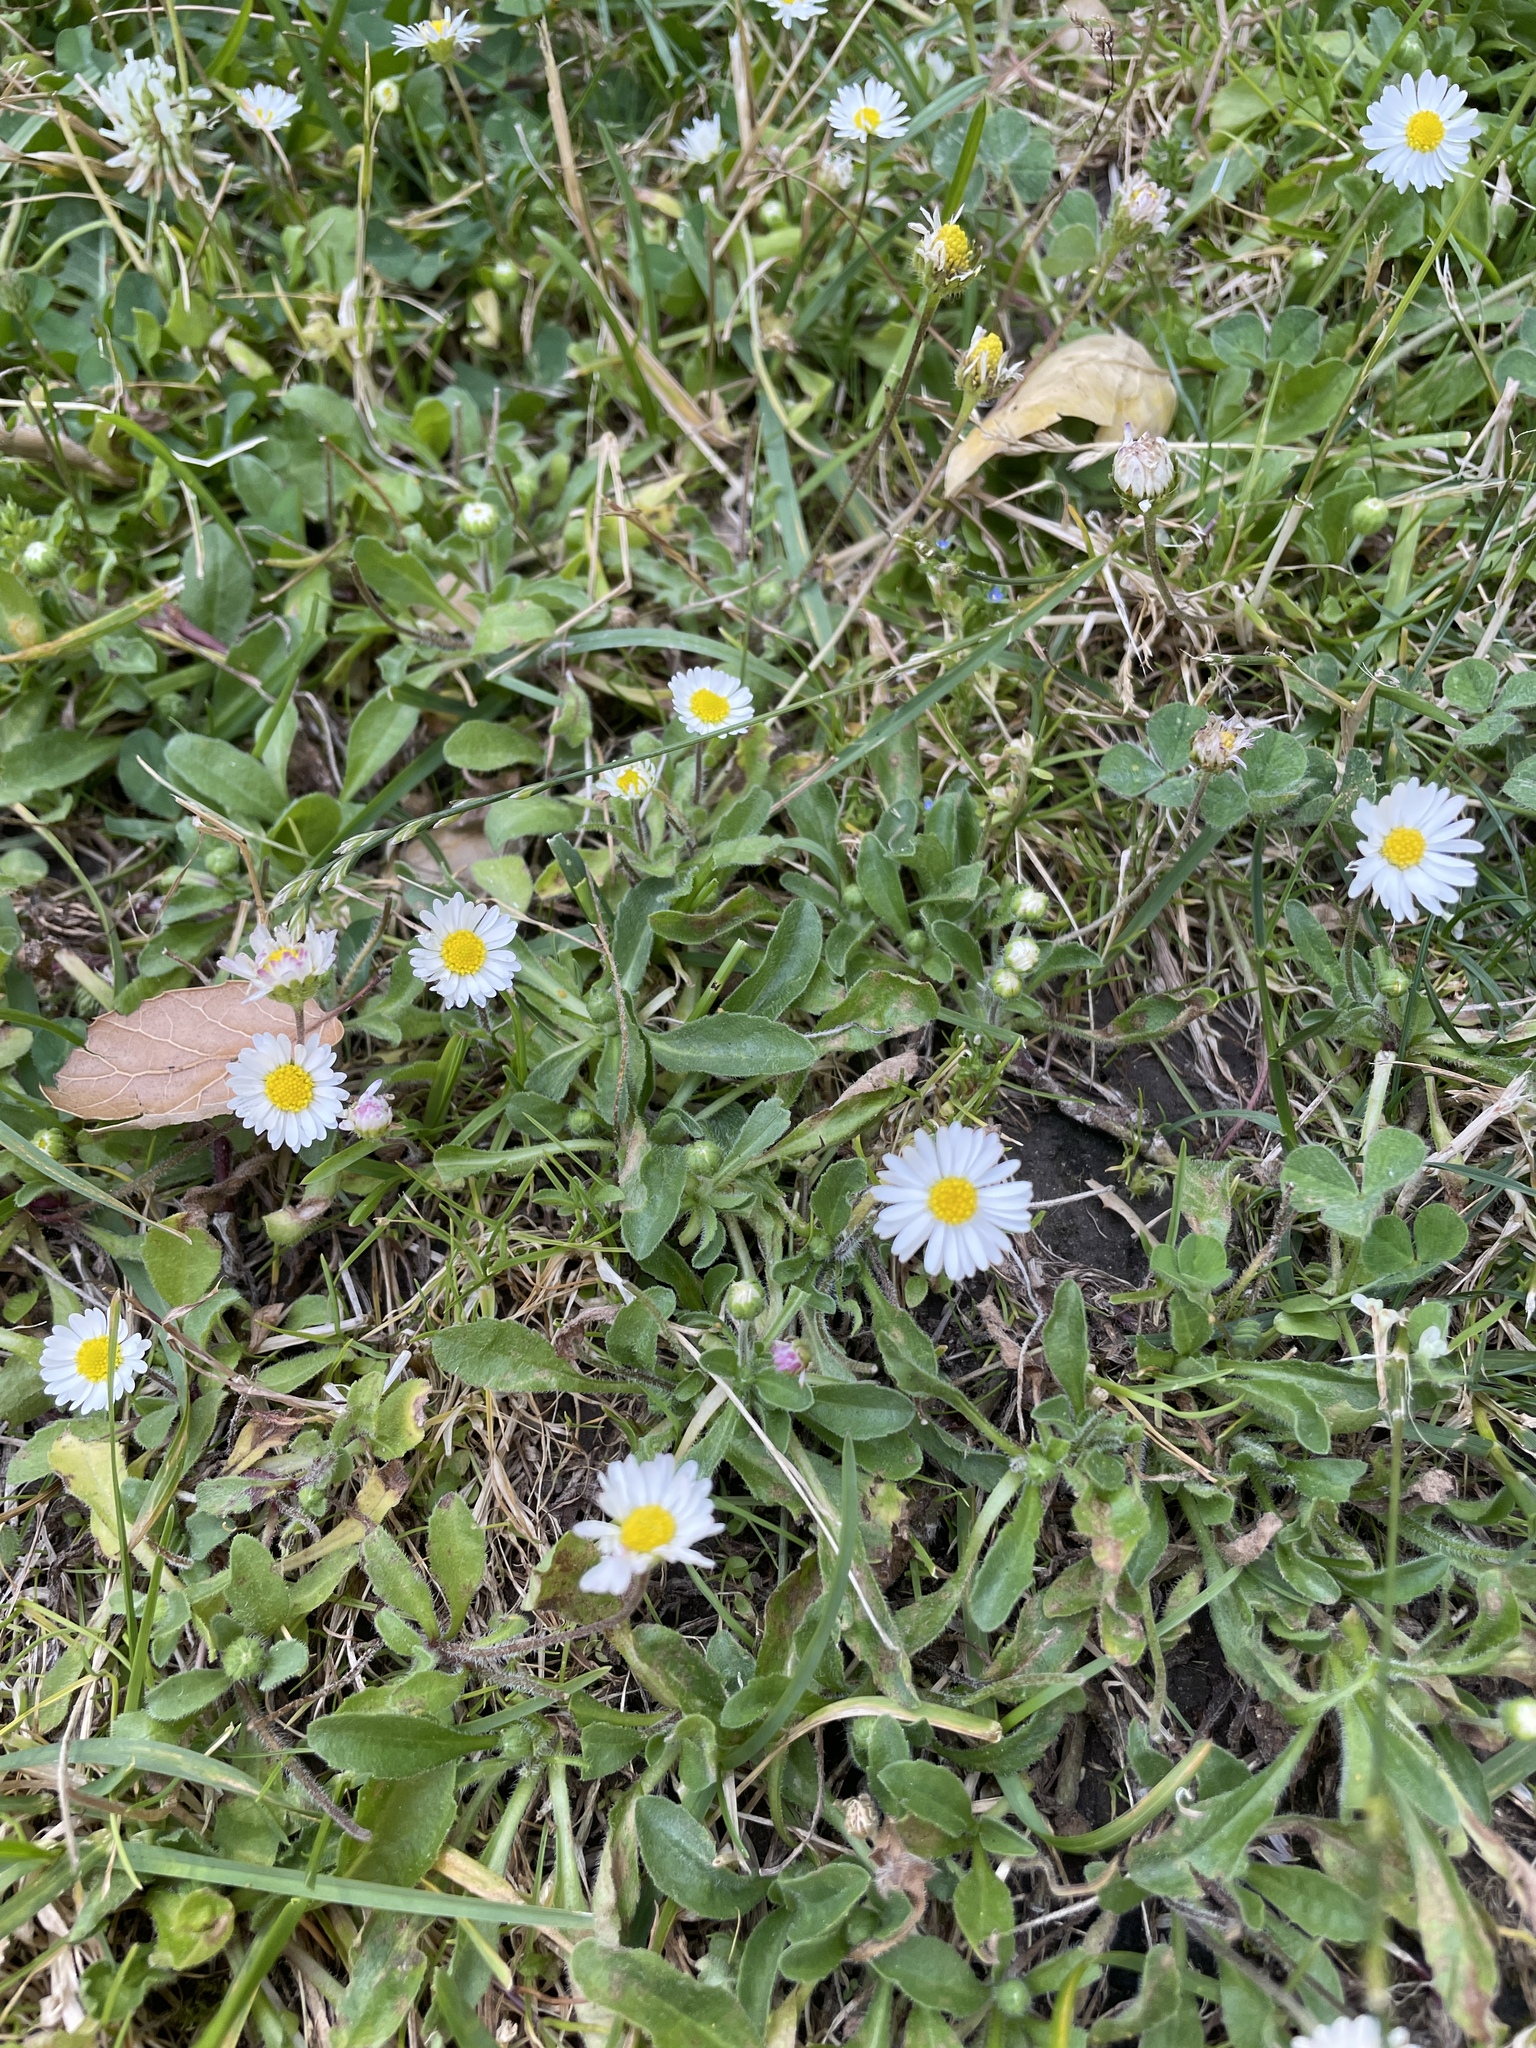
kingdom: Plantae
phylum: Tracheophyta
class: Magnoliopsida
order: Asterales
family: Asteraceae
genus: Bellis
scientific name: Bellis perennis
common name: Lawndaisy
